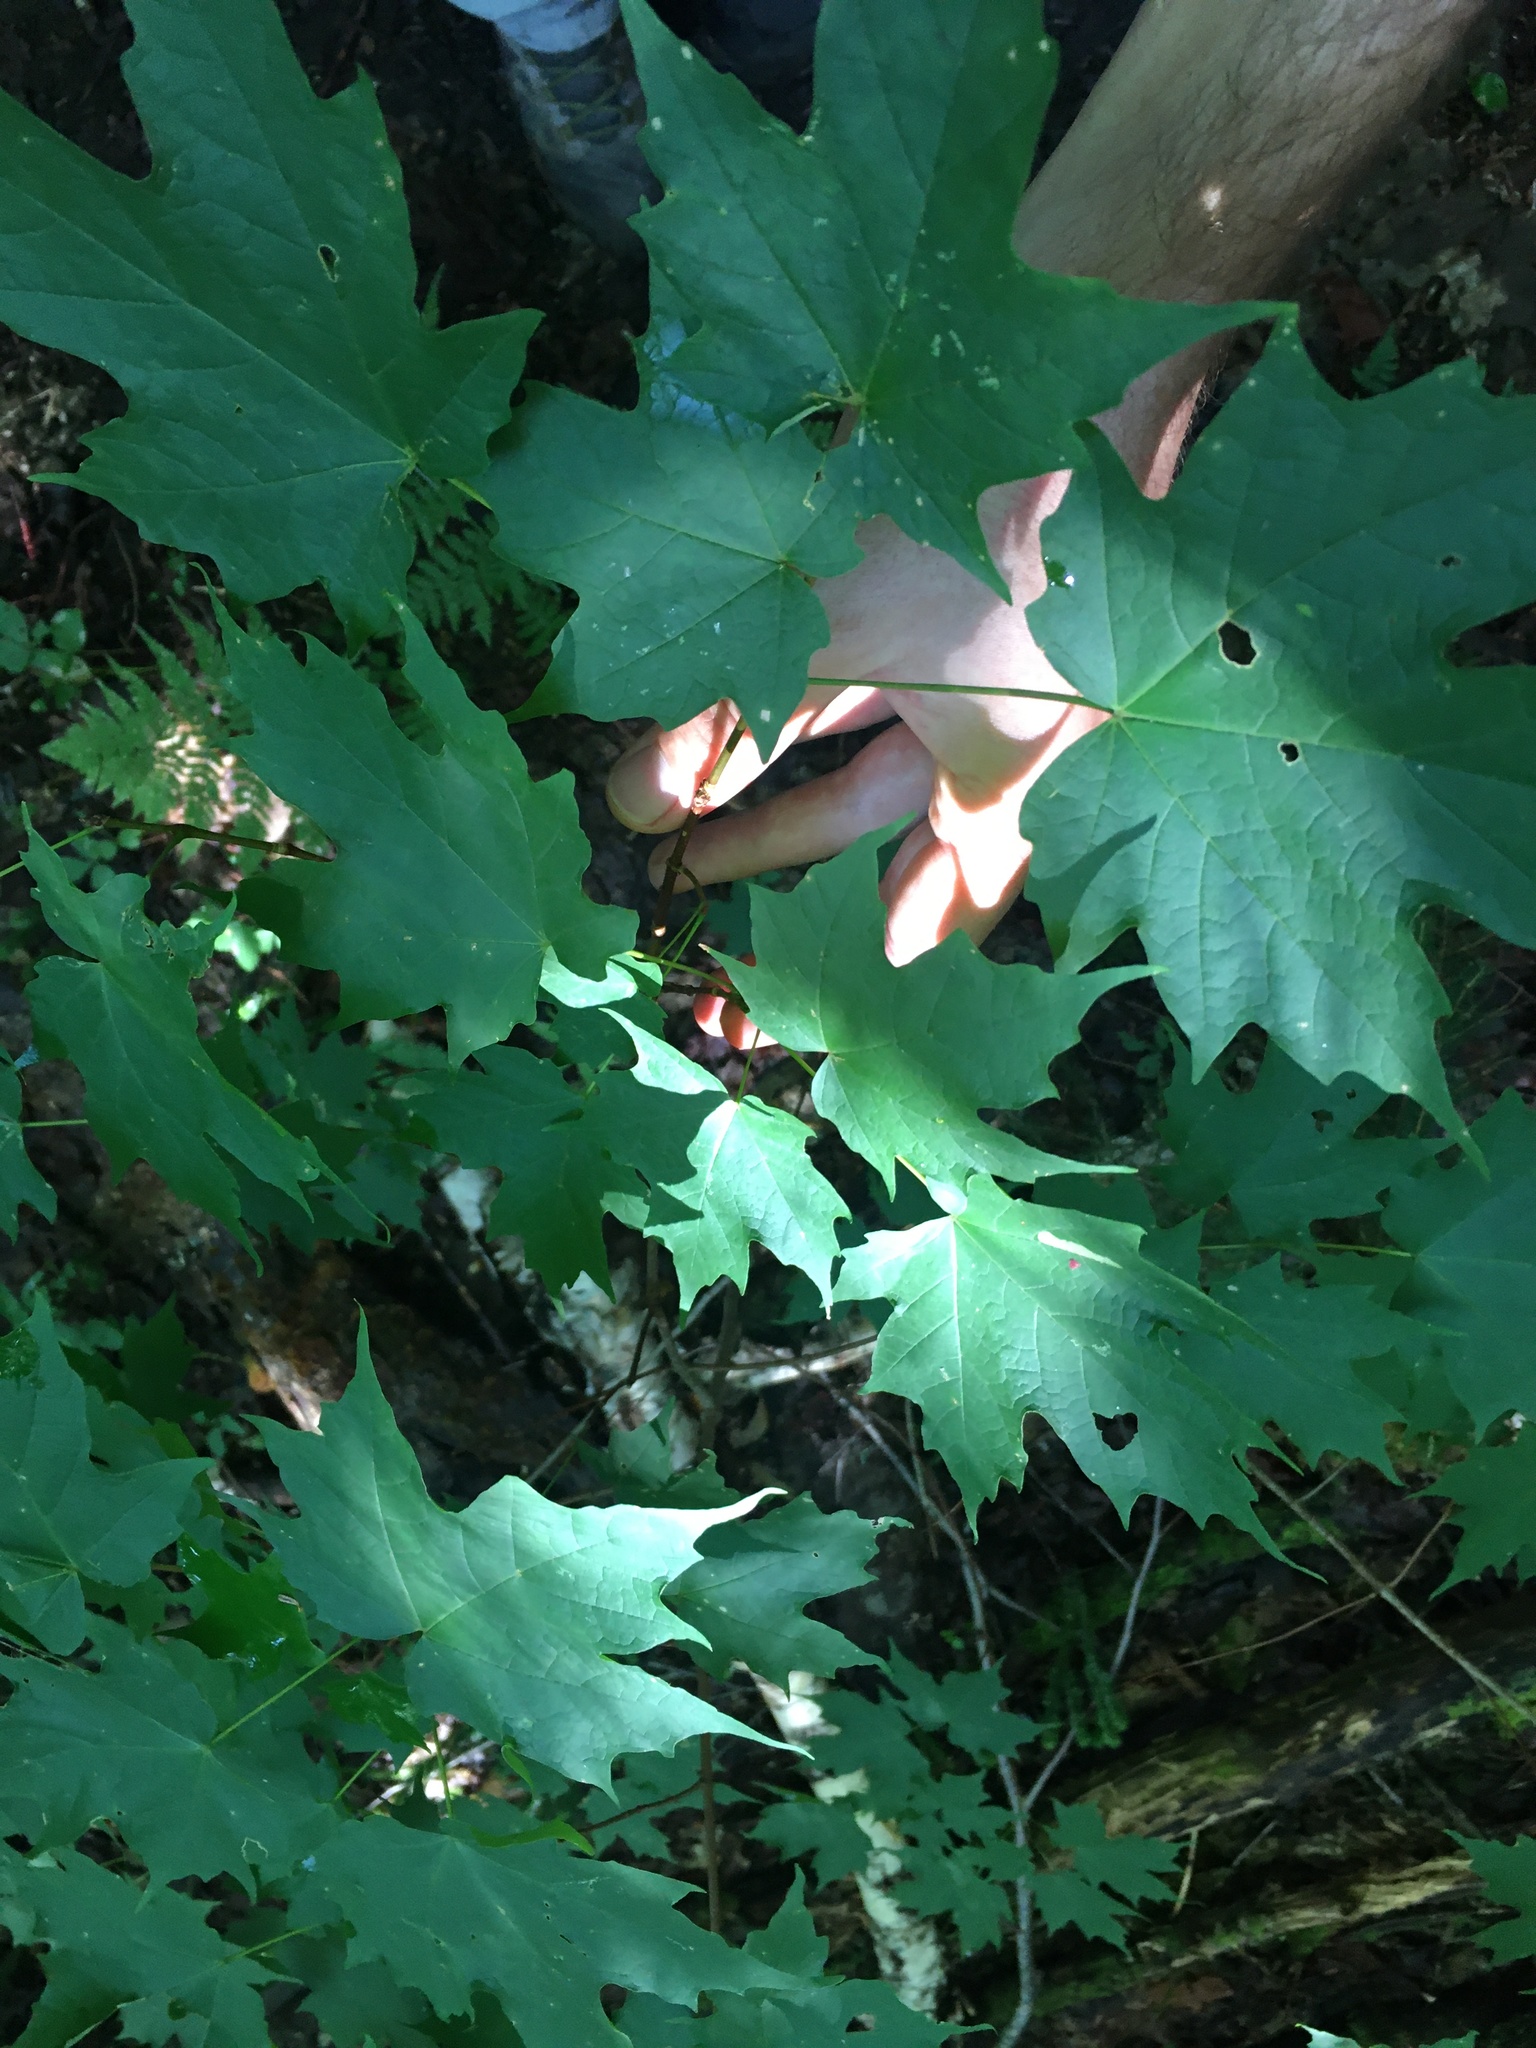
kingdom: Plantae
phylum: Tracheophyta
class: Magnoliopsida
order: Sapindales
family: Sapindaceae
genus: Acer
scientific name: Acer saccharum
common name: Sugar maple
